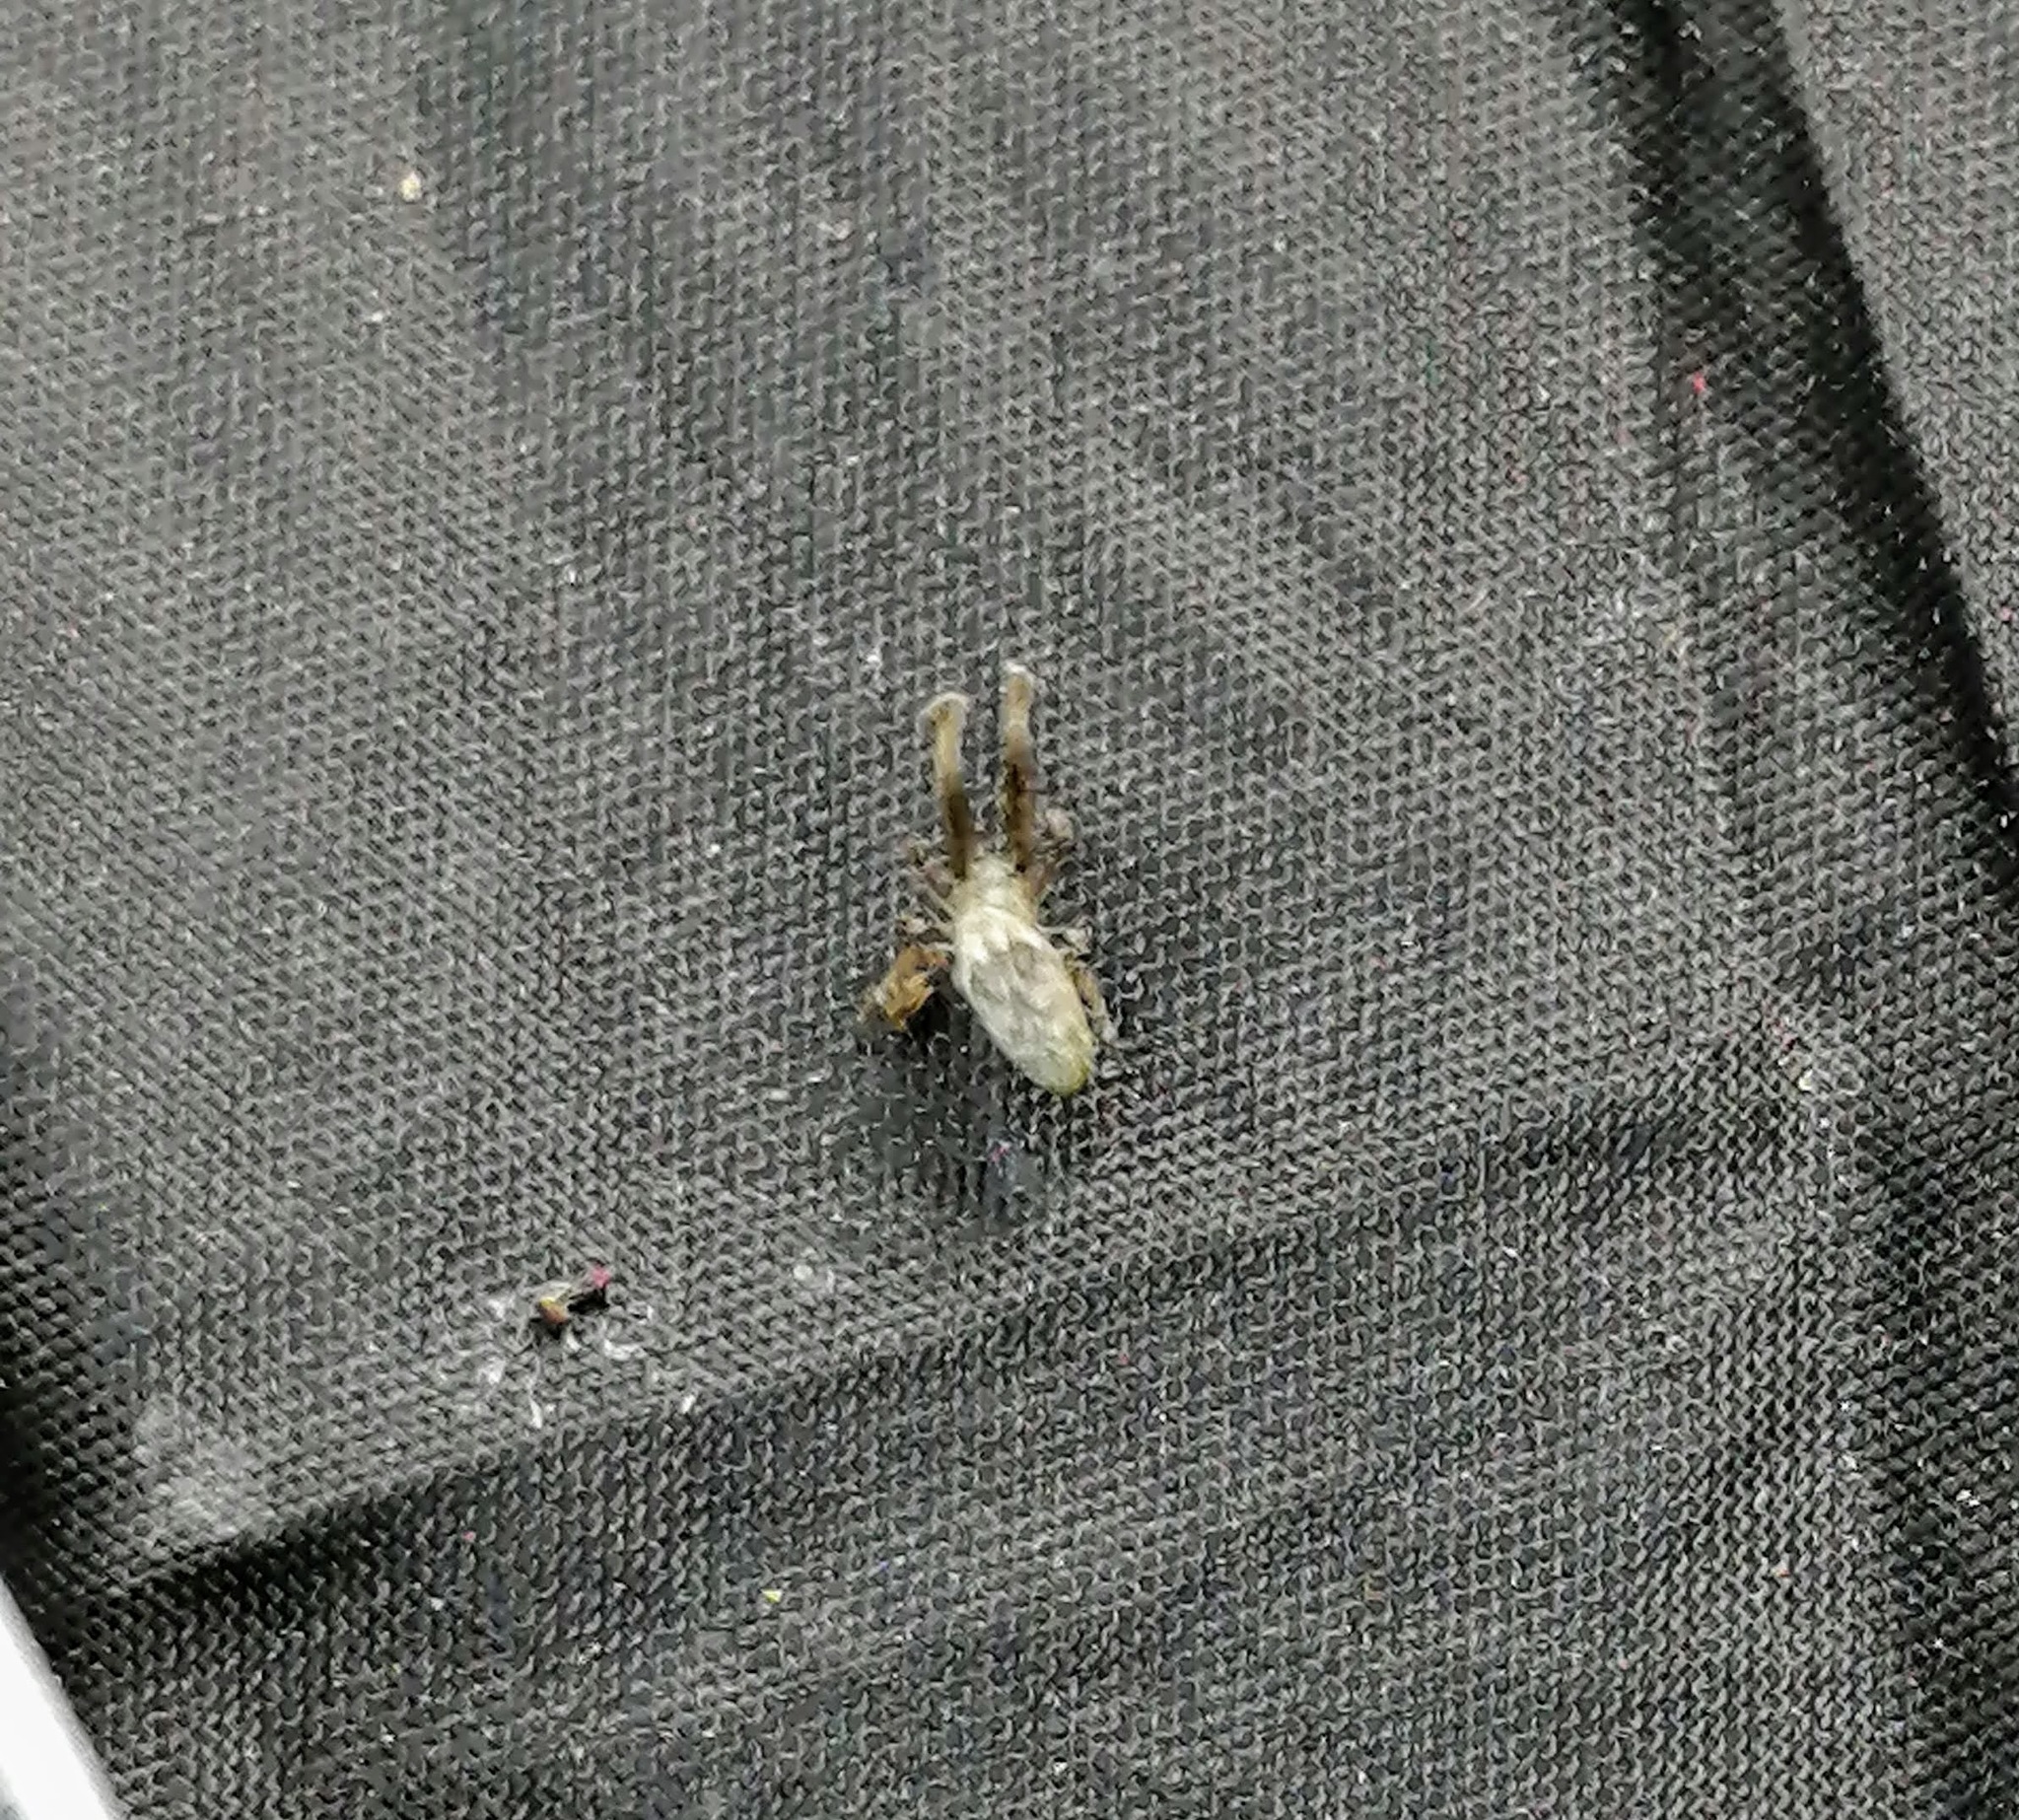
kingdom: Animalia
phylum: Arthropoda
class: Arachnida
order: Araneae
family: Uloboridae
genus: Uloborus
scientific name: Uloborus glomosus
